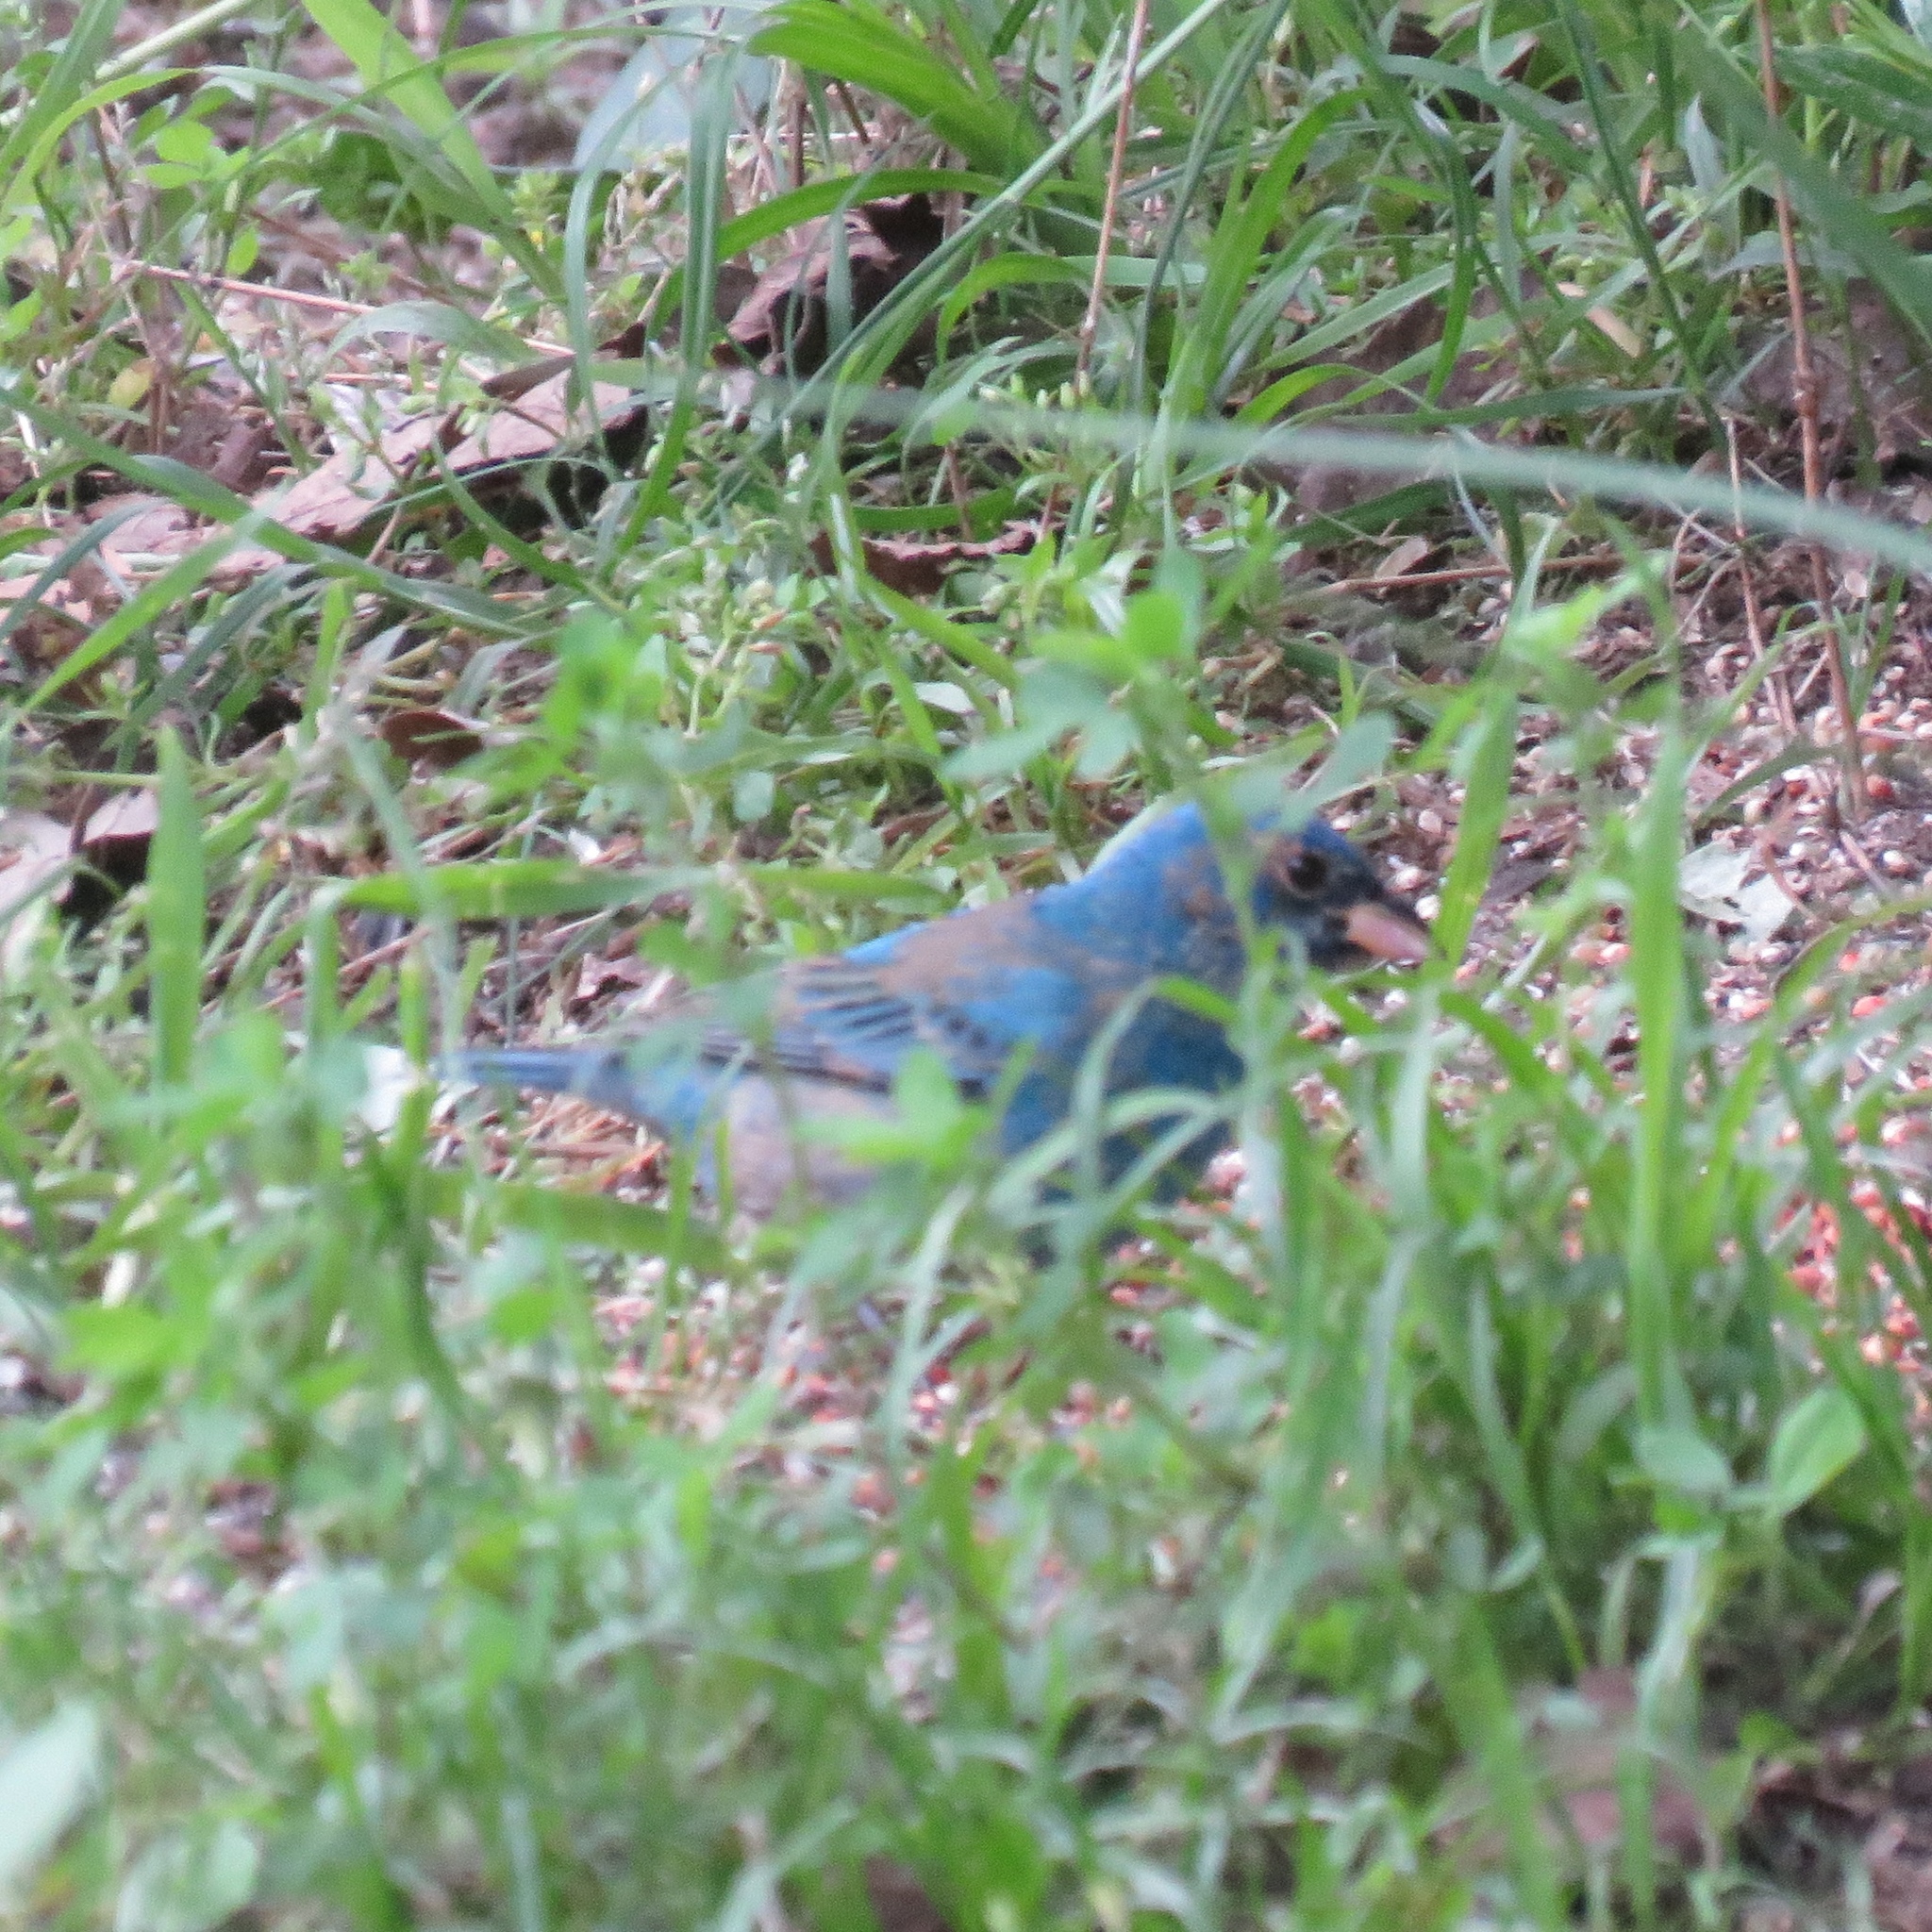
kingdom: Animalia
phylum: Chordata
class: Aves
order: Passeriformes
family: Cardinalidae
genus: Passerina
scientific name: Passerina cyanea
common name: Indigo bunting
